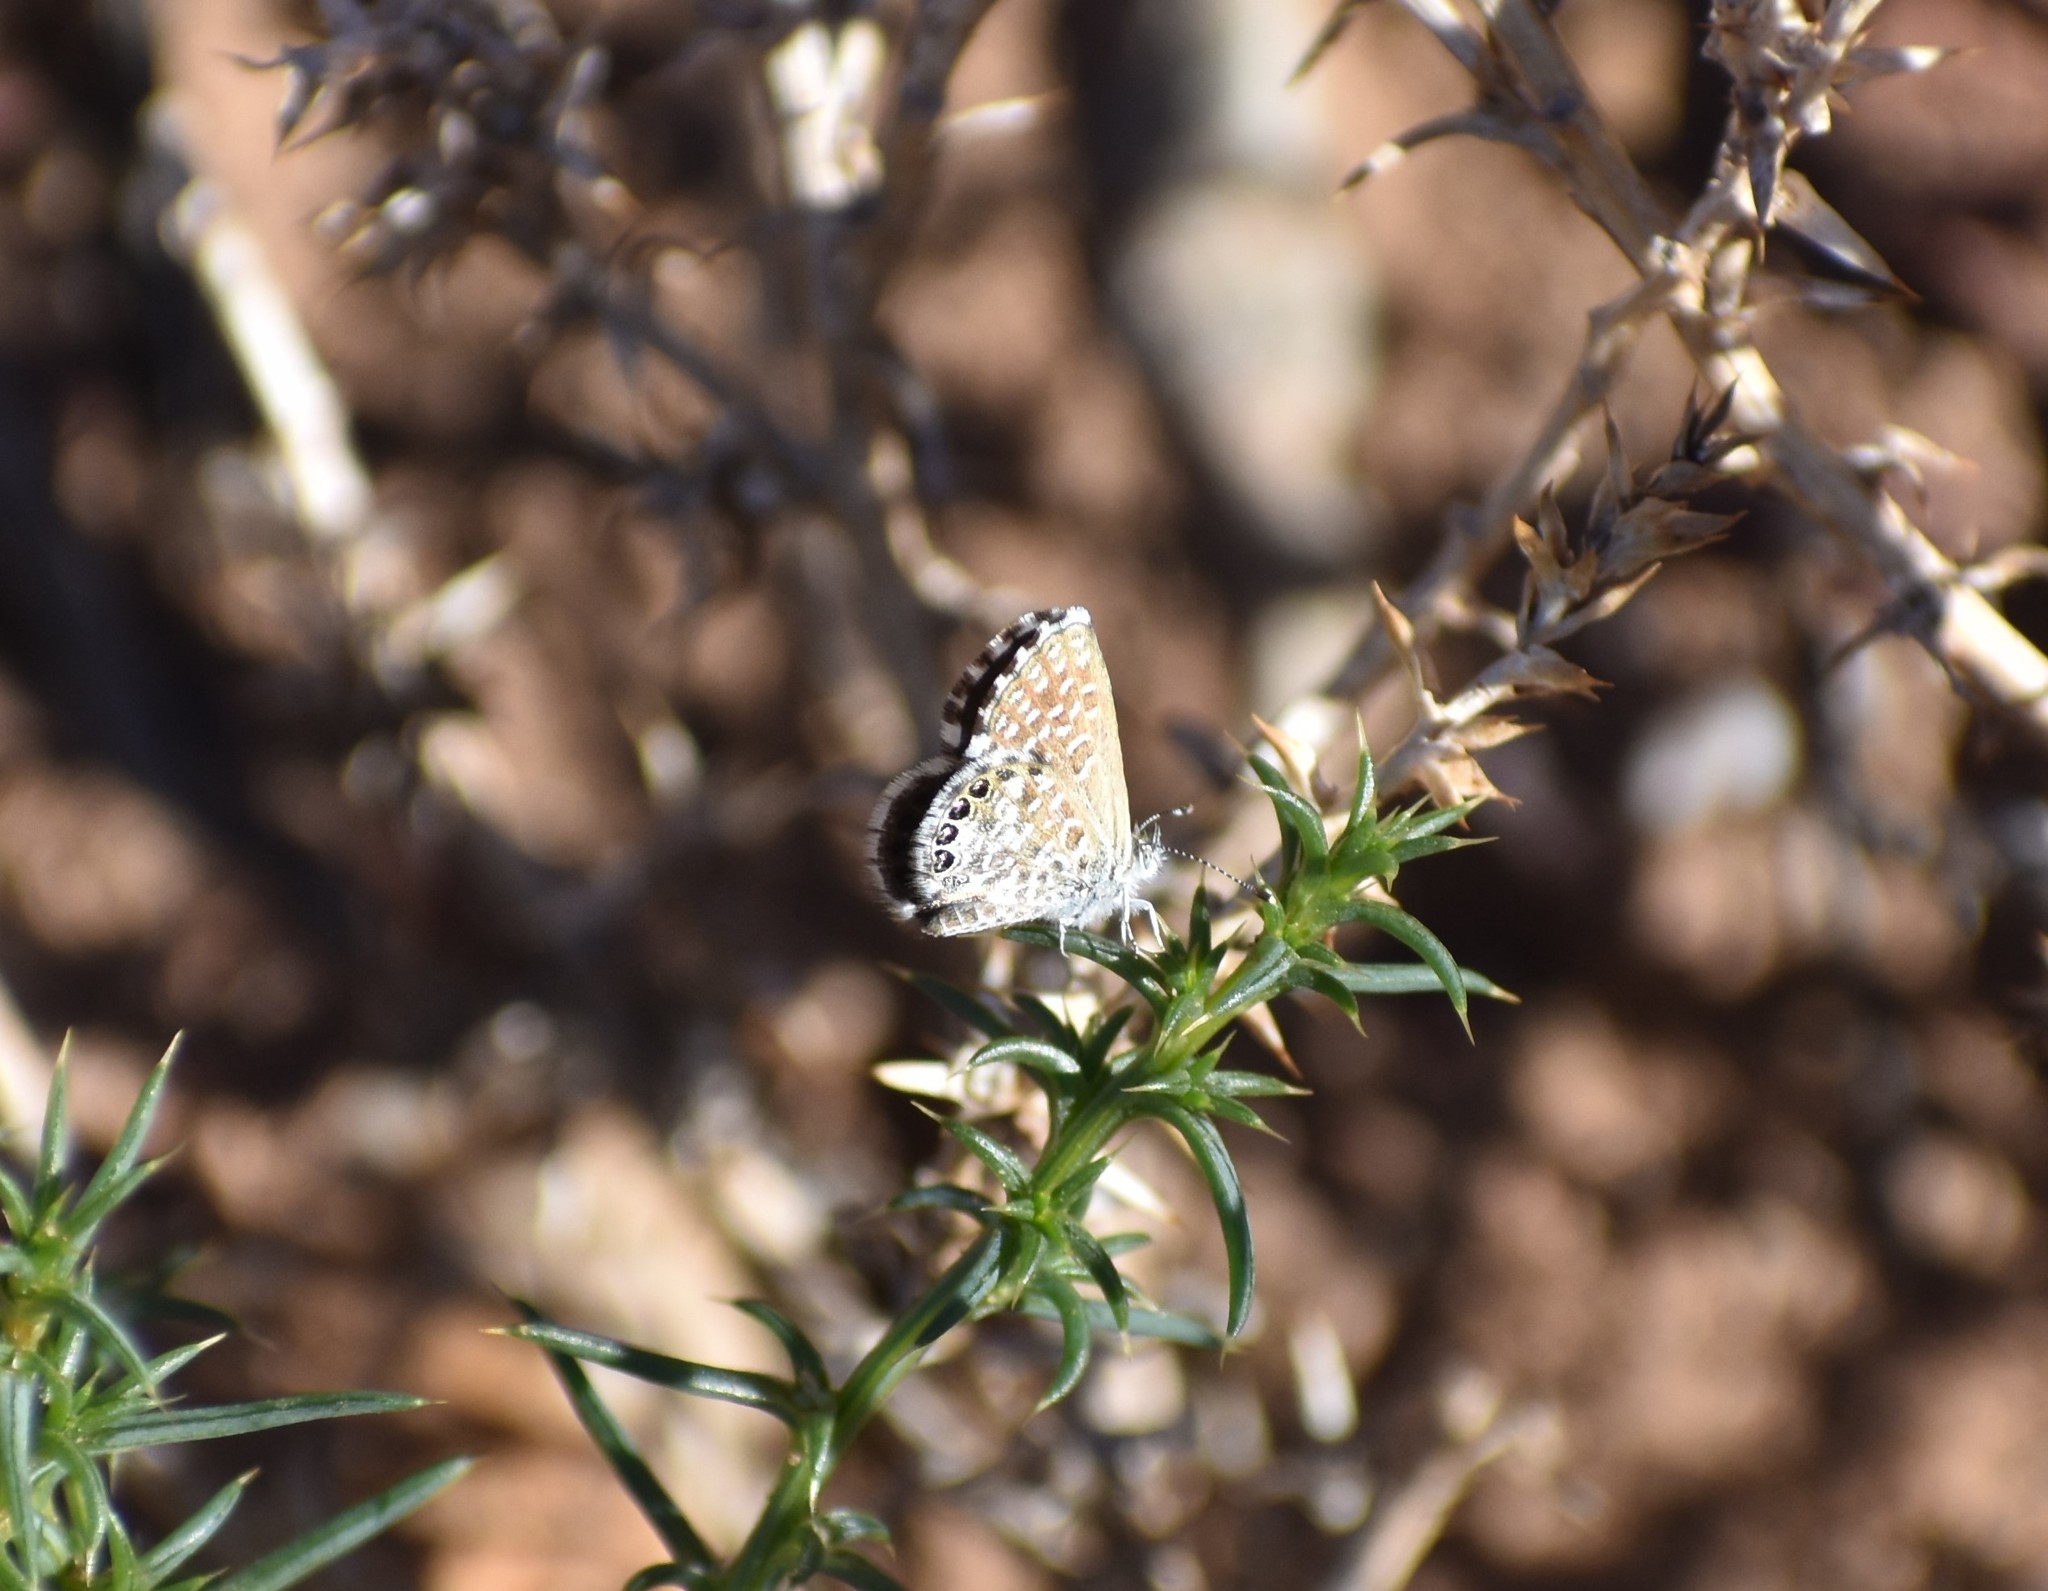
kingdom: Animalia
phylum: Arthropoda
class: Insecta
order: Lepidoptera
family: Lycaenidae
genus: Anthene
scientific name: Anthene definita
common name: Common ciliate blue
